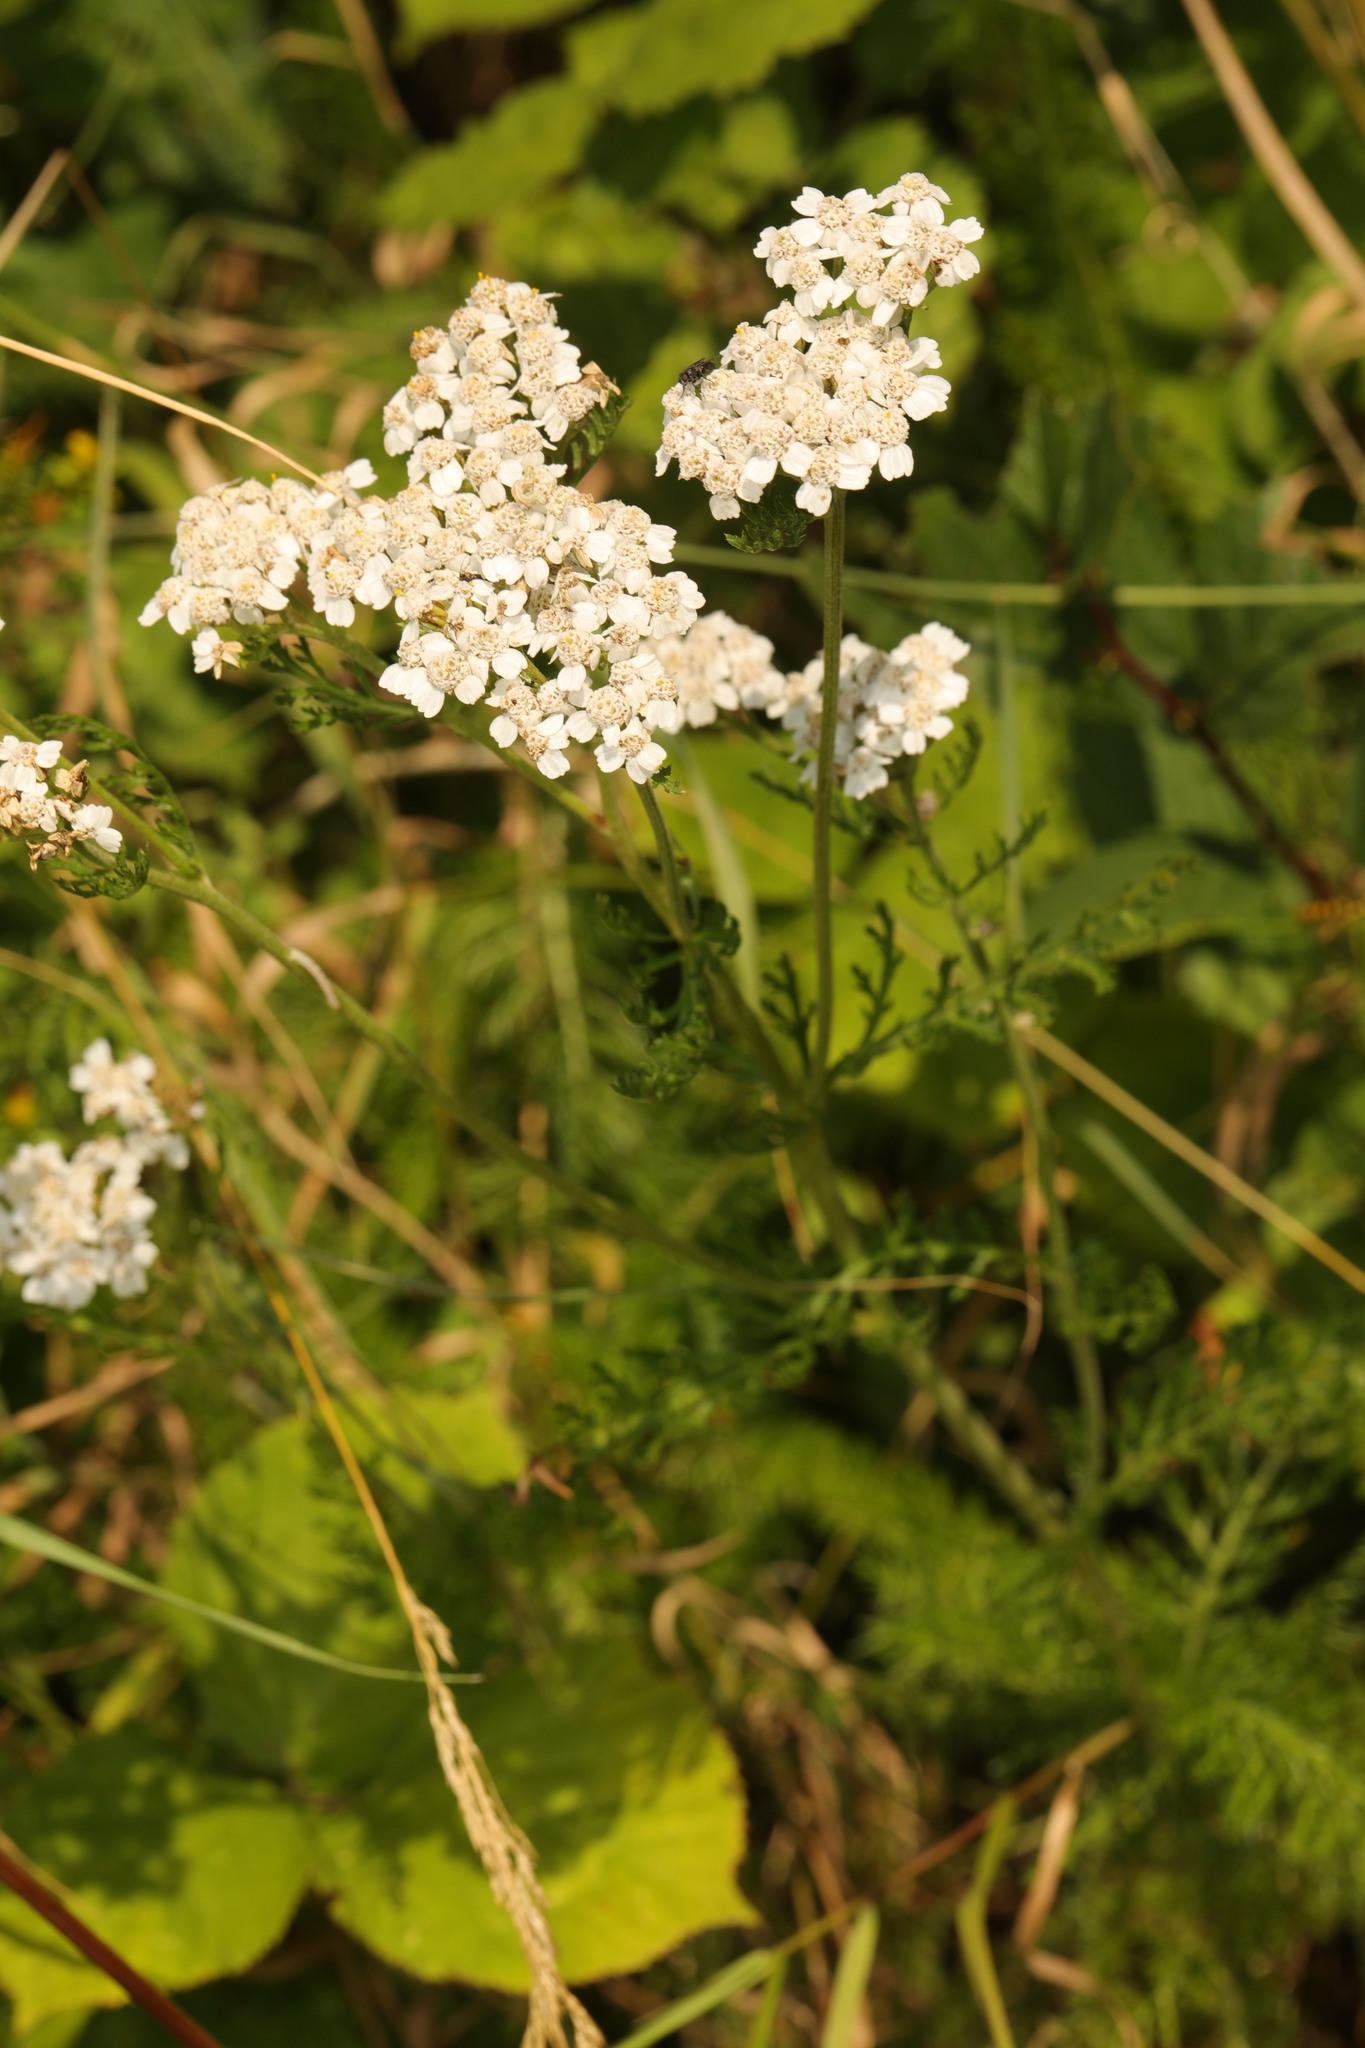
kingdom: Plantae
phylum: Tracheophyta
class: Magnoliopsida
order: Asterales
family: Asteraceae
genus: Achillea
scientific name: Achillea millefolium
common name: Yarrow
